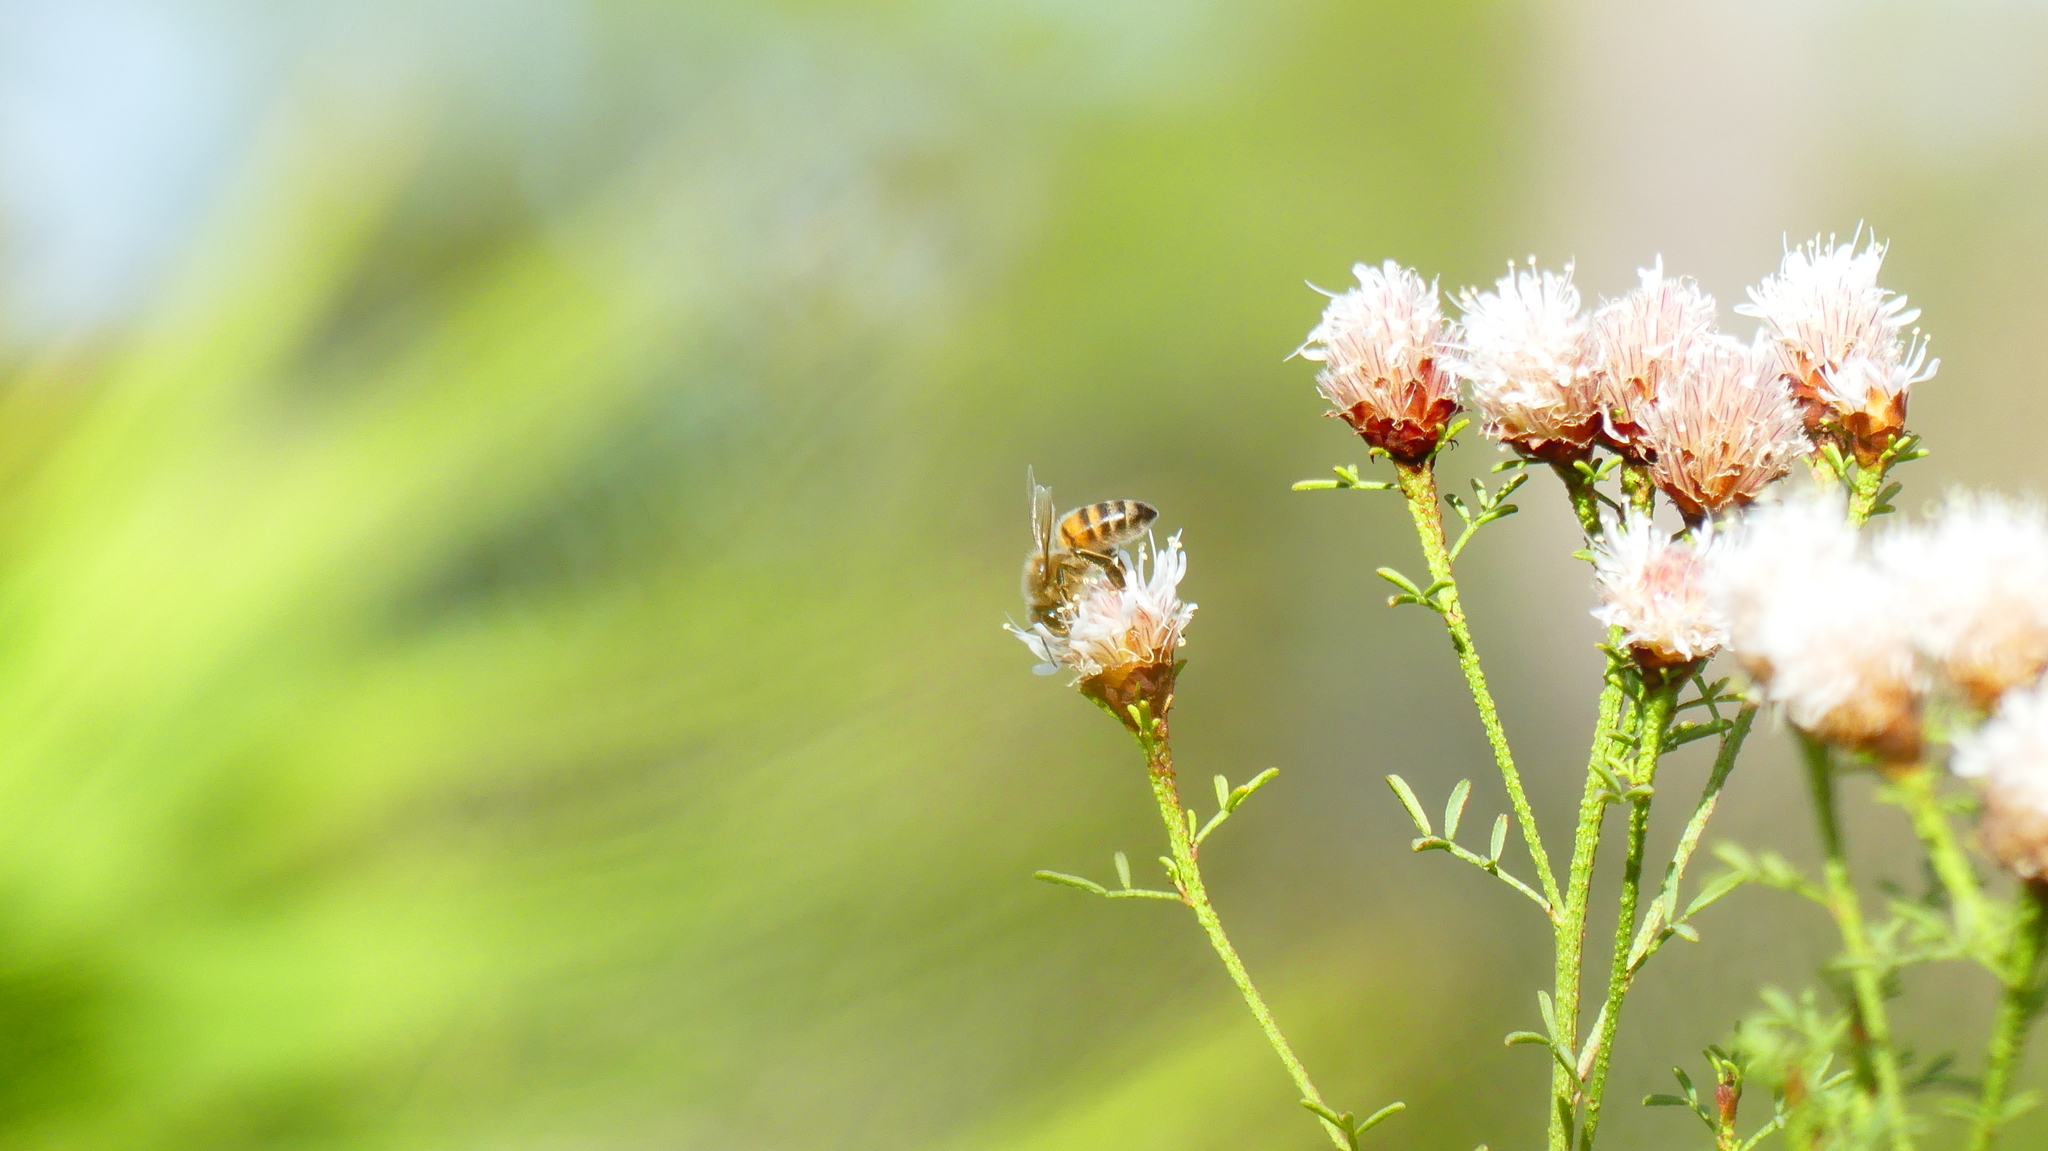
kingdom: Animalia
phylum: Arthropoda
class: Insecta
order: Hymenoptera
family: Apidae
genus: Apis
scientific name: Apis mellifera
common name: Honey bee
